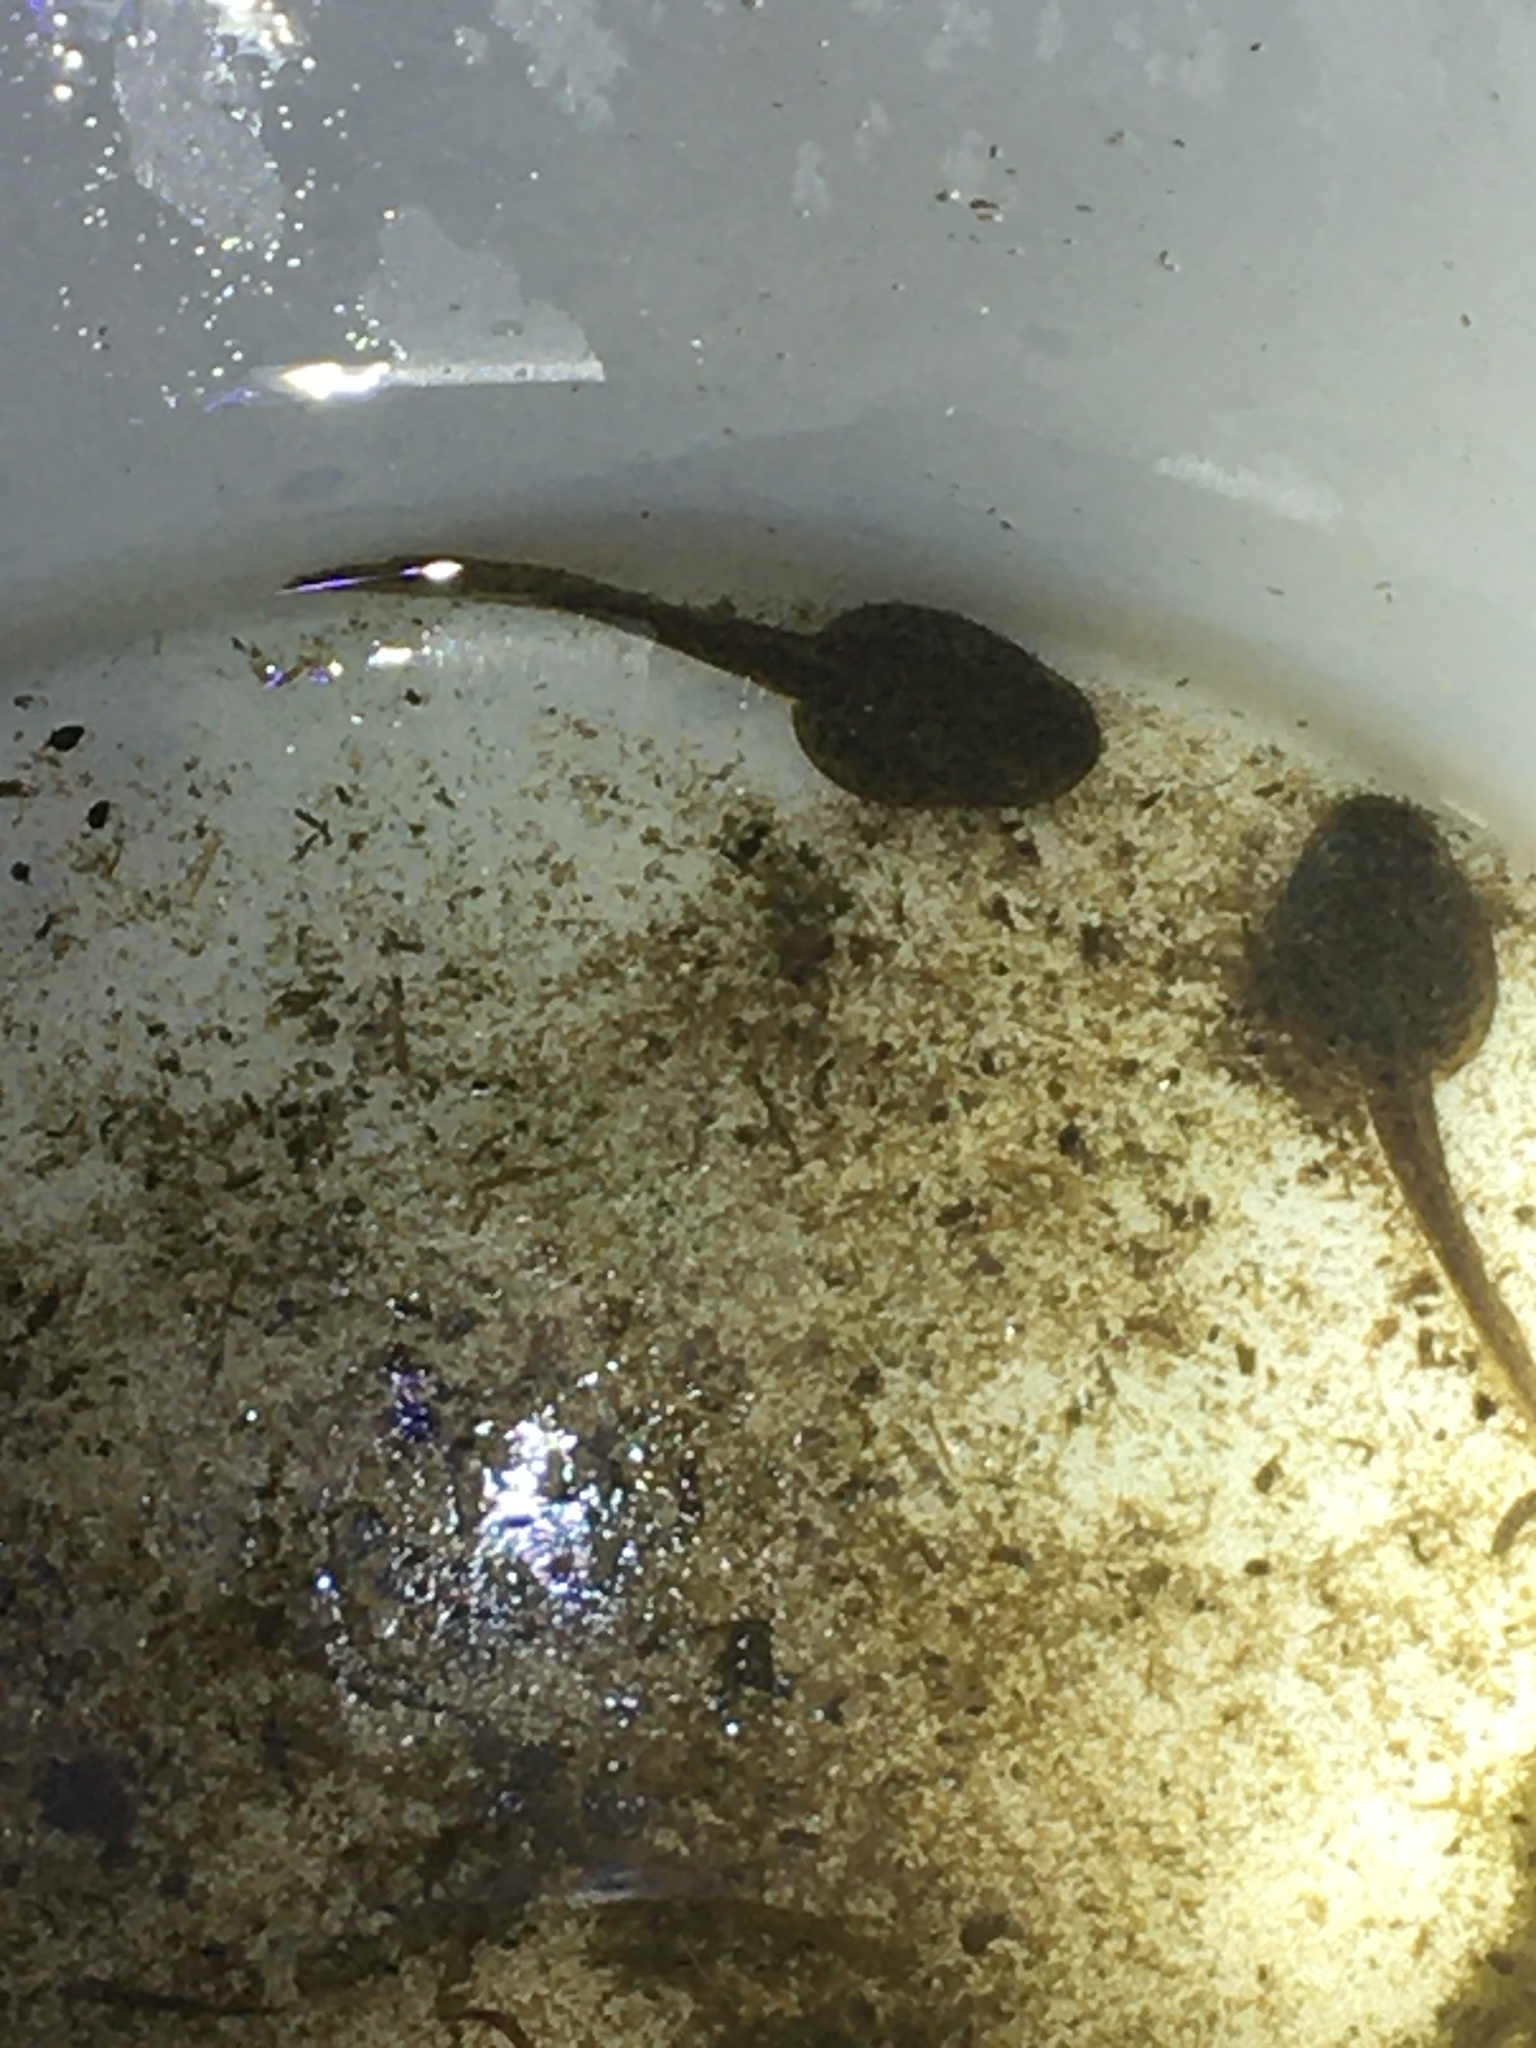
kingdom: Animalia
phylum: Chordata
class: Amphibia
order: Anura
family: Ranidae
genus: Lithobates
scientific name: Lithobates clamitans
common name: Green frog
